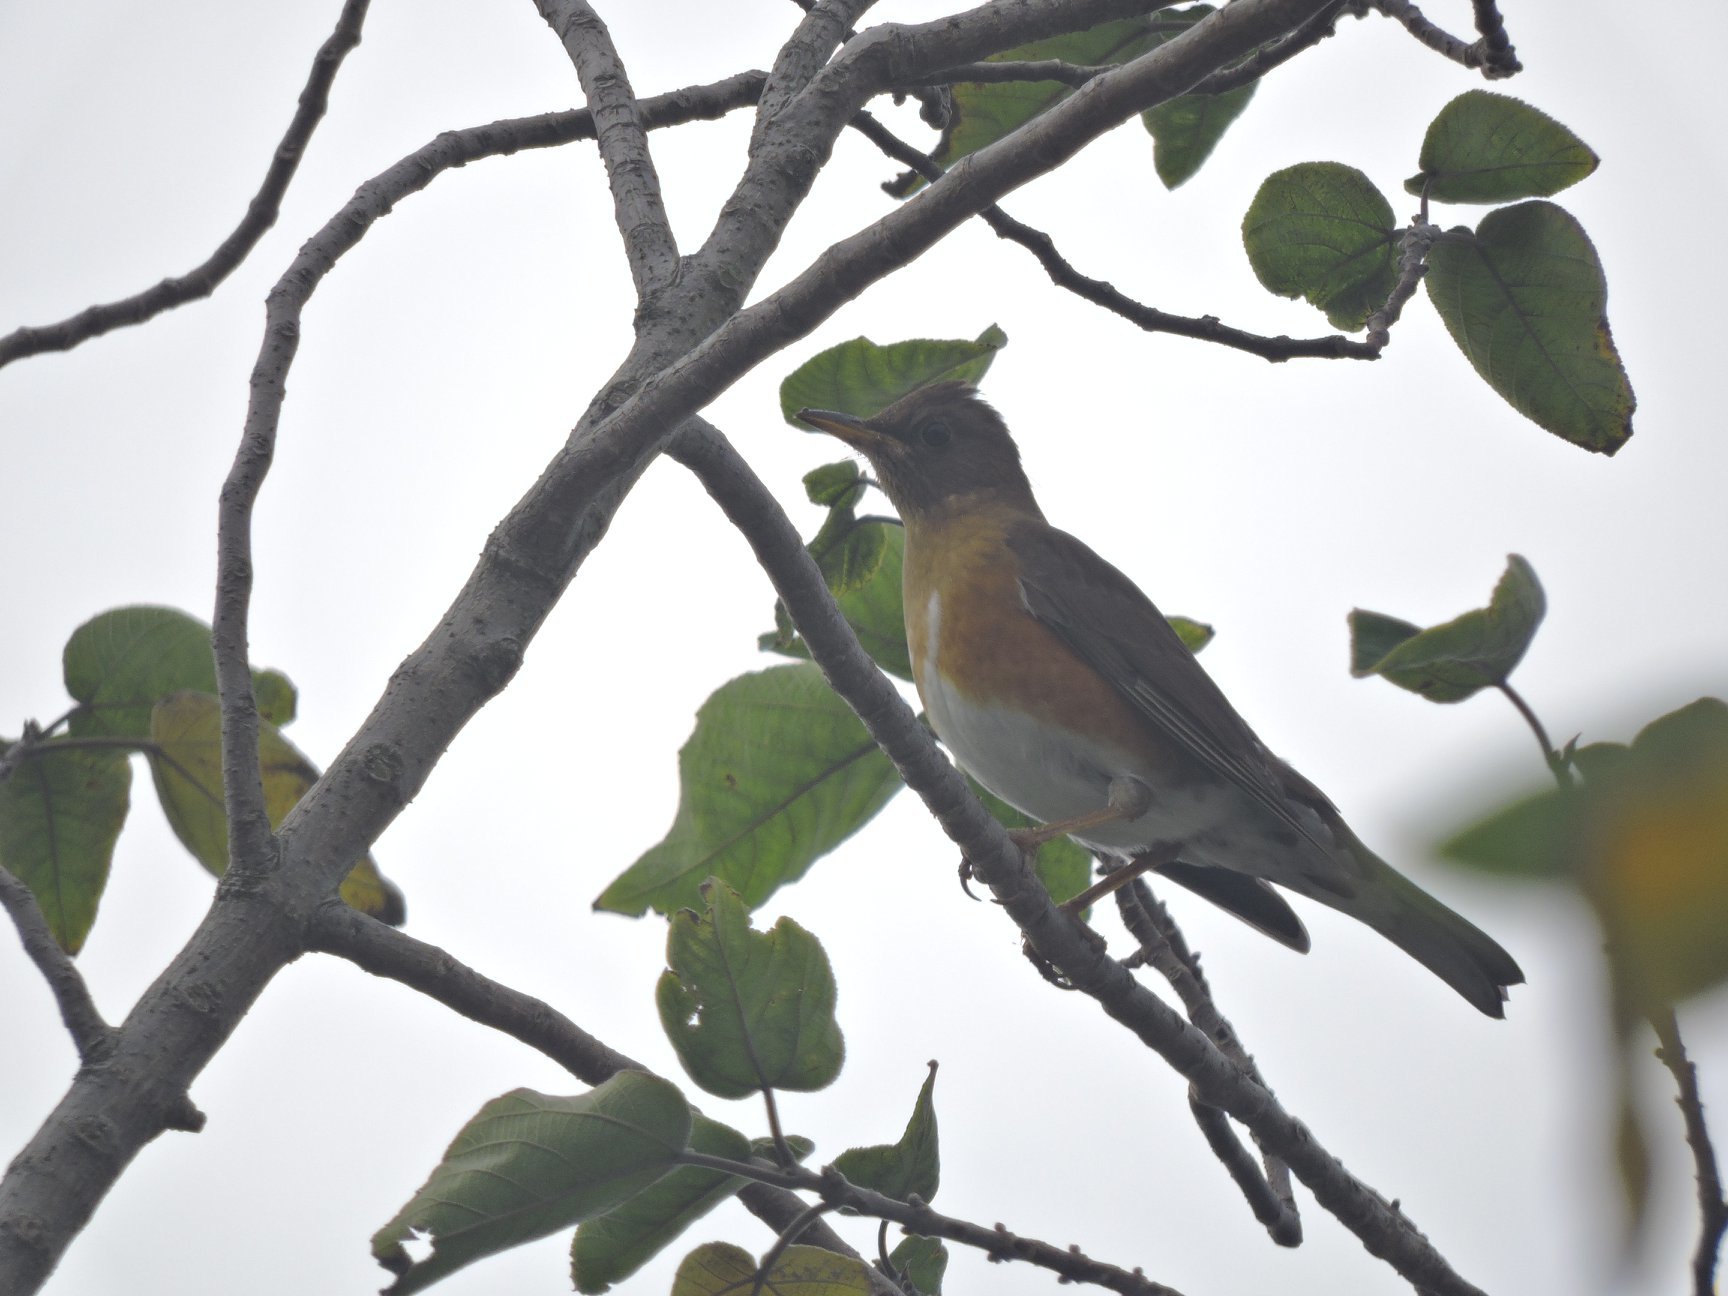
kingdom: Animalia
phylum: Chordata
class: Aves
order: Passeriformes
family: Turdidae
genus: Turdus
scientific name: Turdus chrysolaus
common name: Brown-headed thrush
